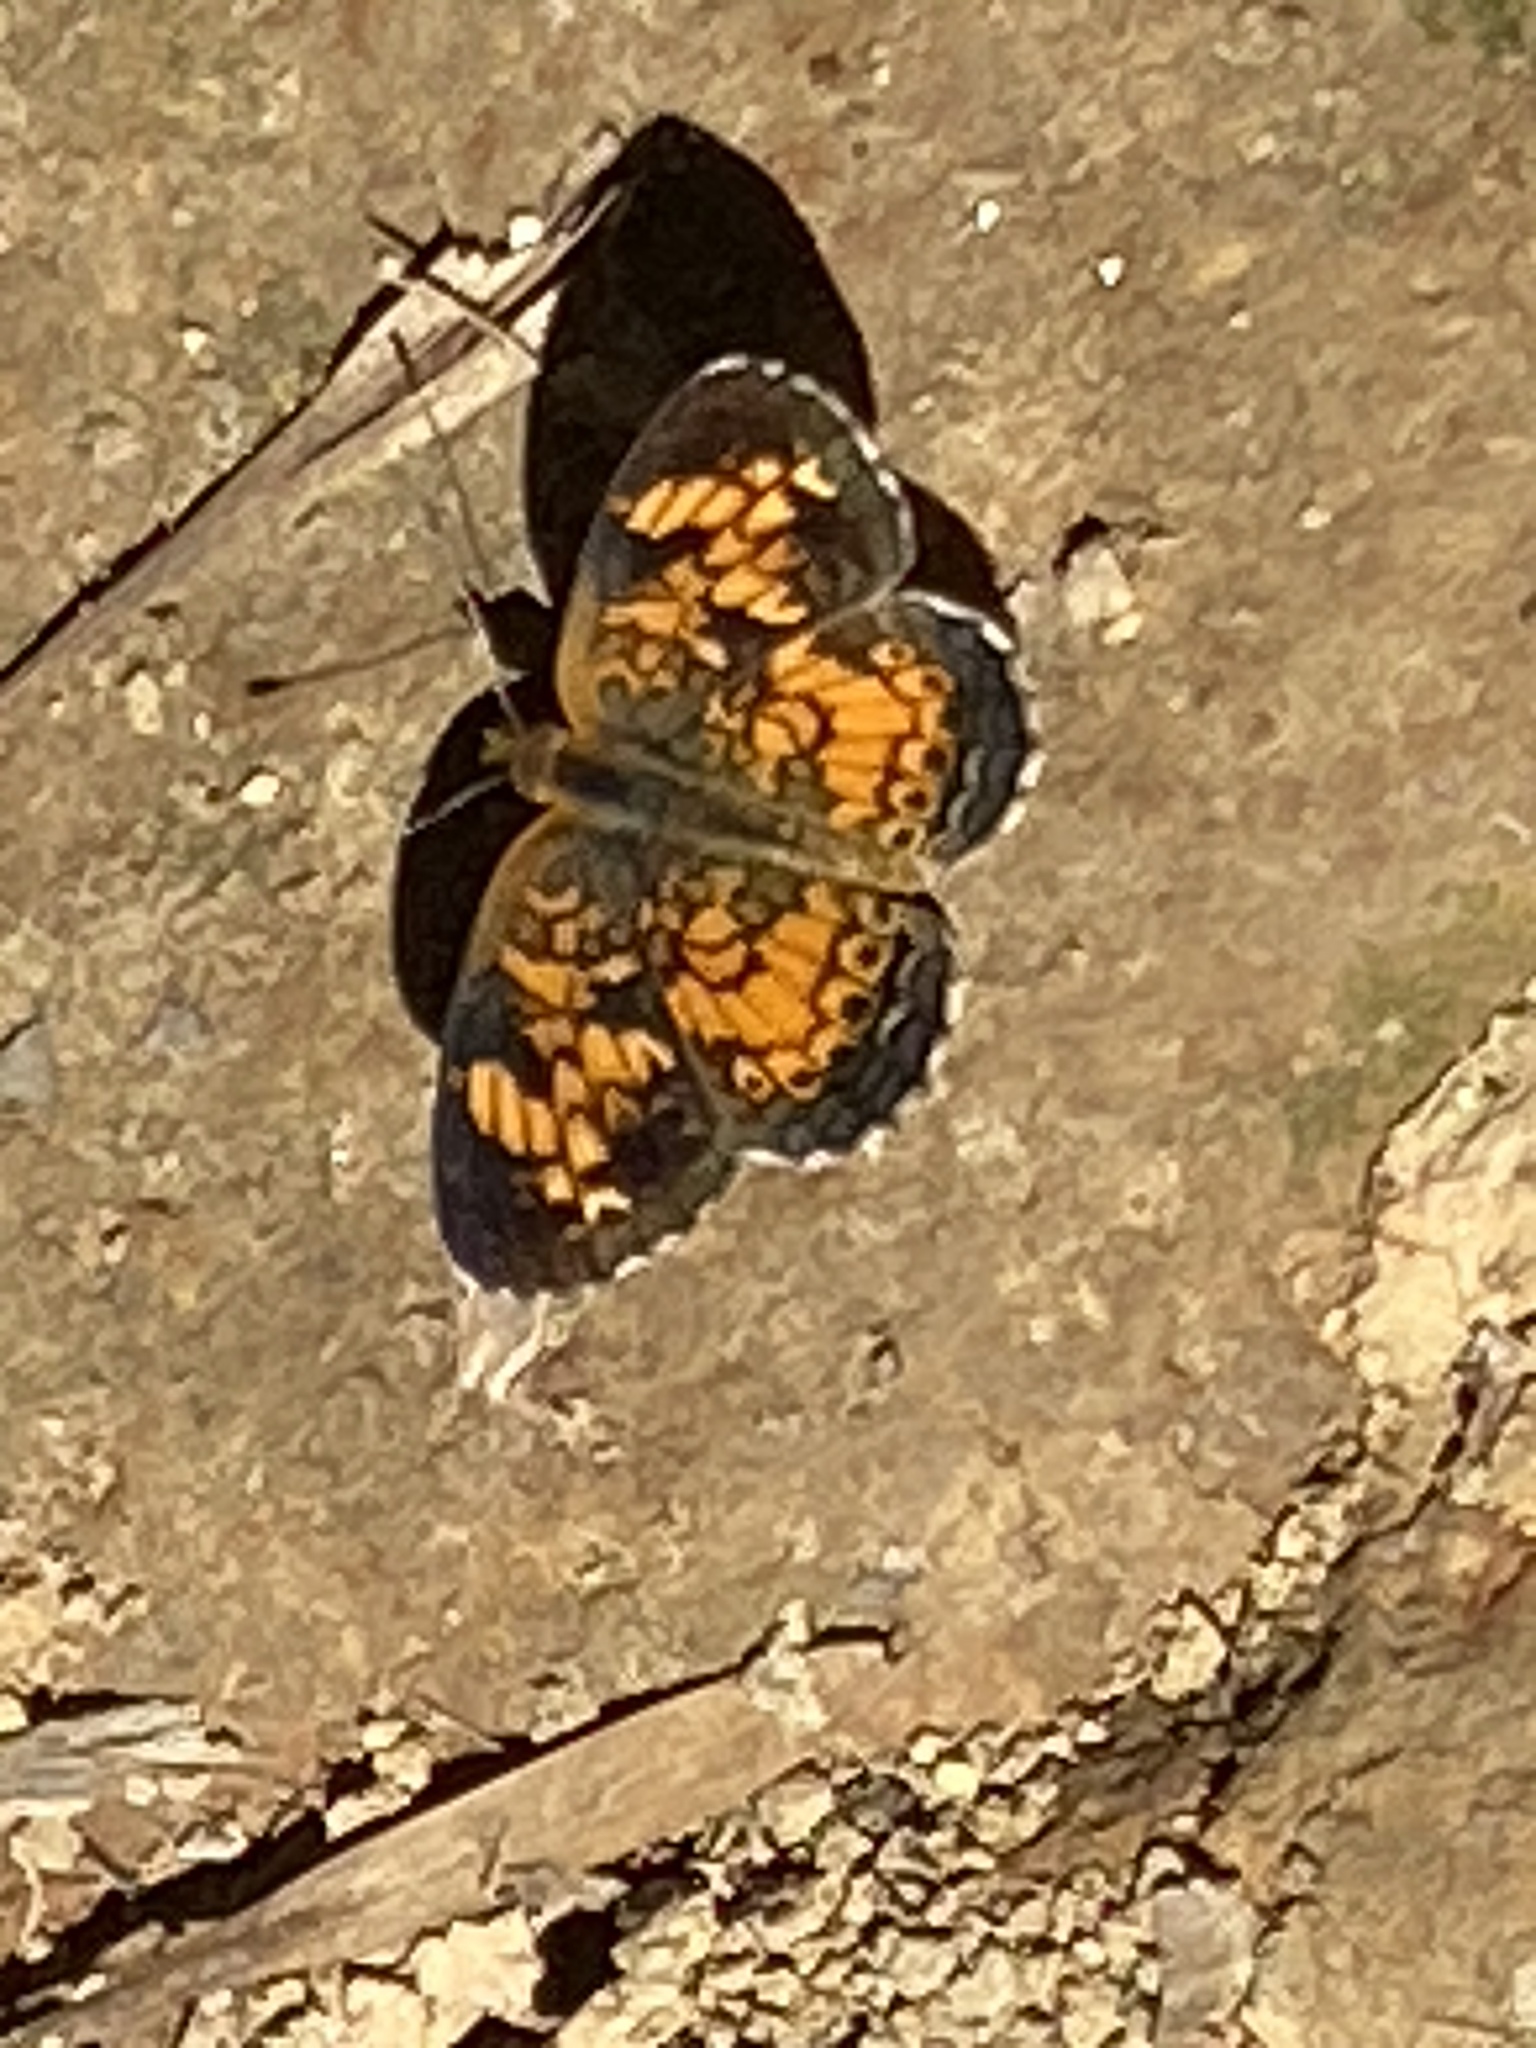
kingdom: Animalia
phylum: Arthropoda
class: Insecta
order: Lepidoptera
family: Nymphalidae
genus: Phyciodes
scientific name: Phyciodes tharos
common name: Pearl crescent
